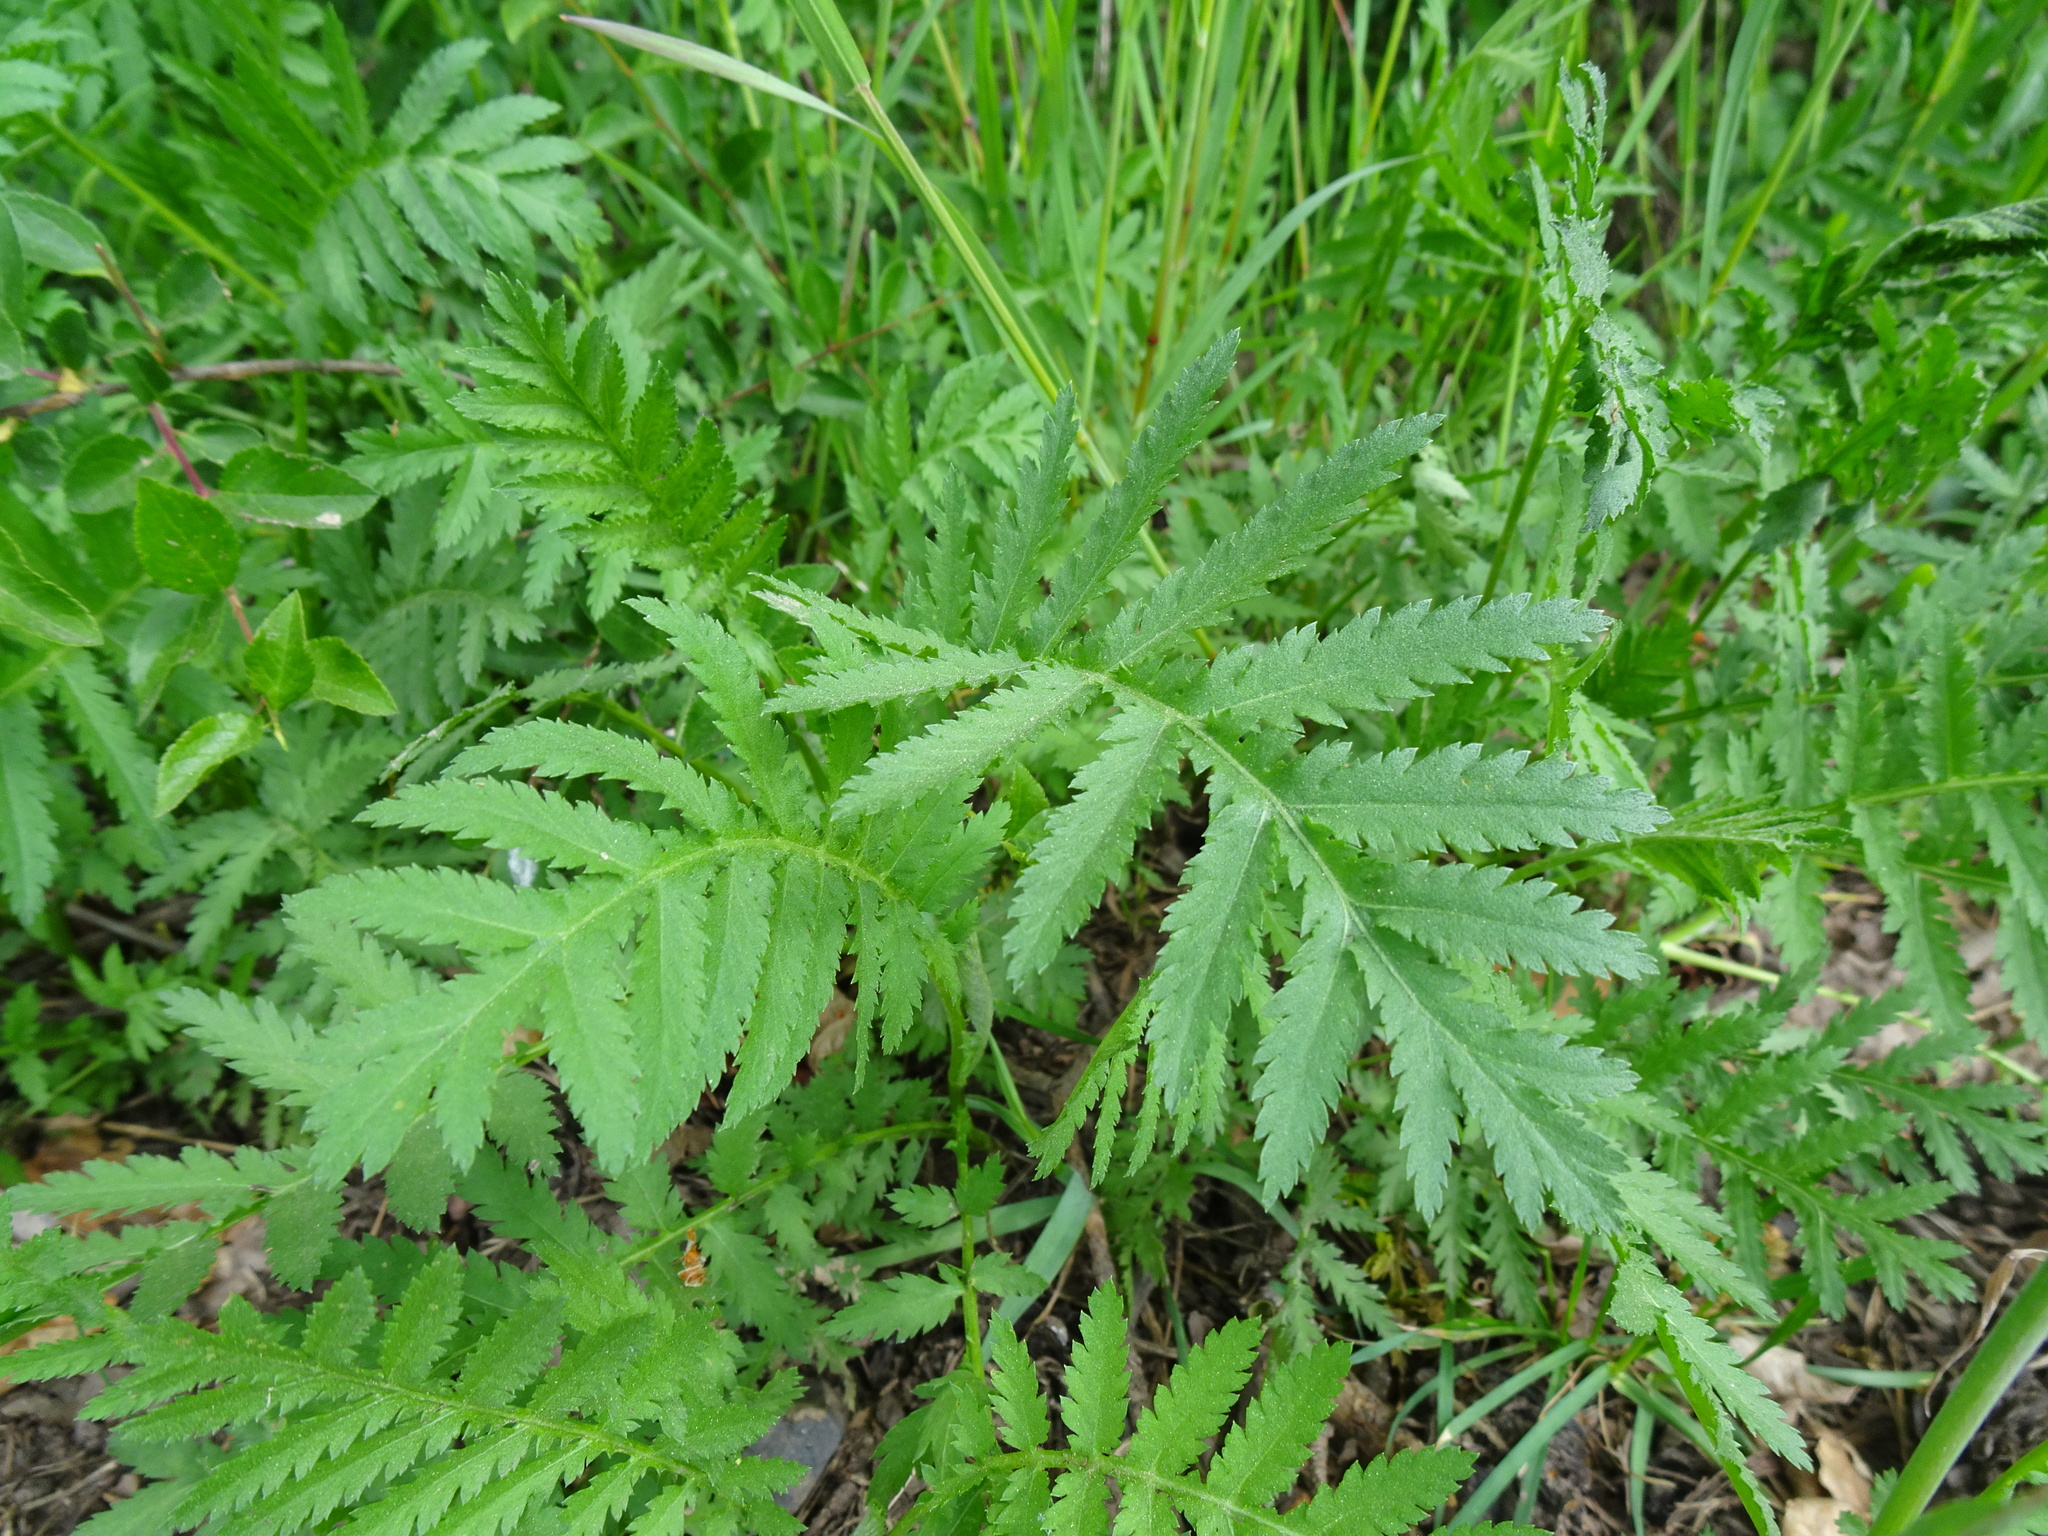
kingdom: Plantae
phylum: Tracheophyta
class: Magnoliopsida
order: Asterales
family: Asteraceae
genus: Tanacetum
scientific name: Tanacetum vulgare
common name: Common tansy
